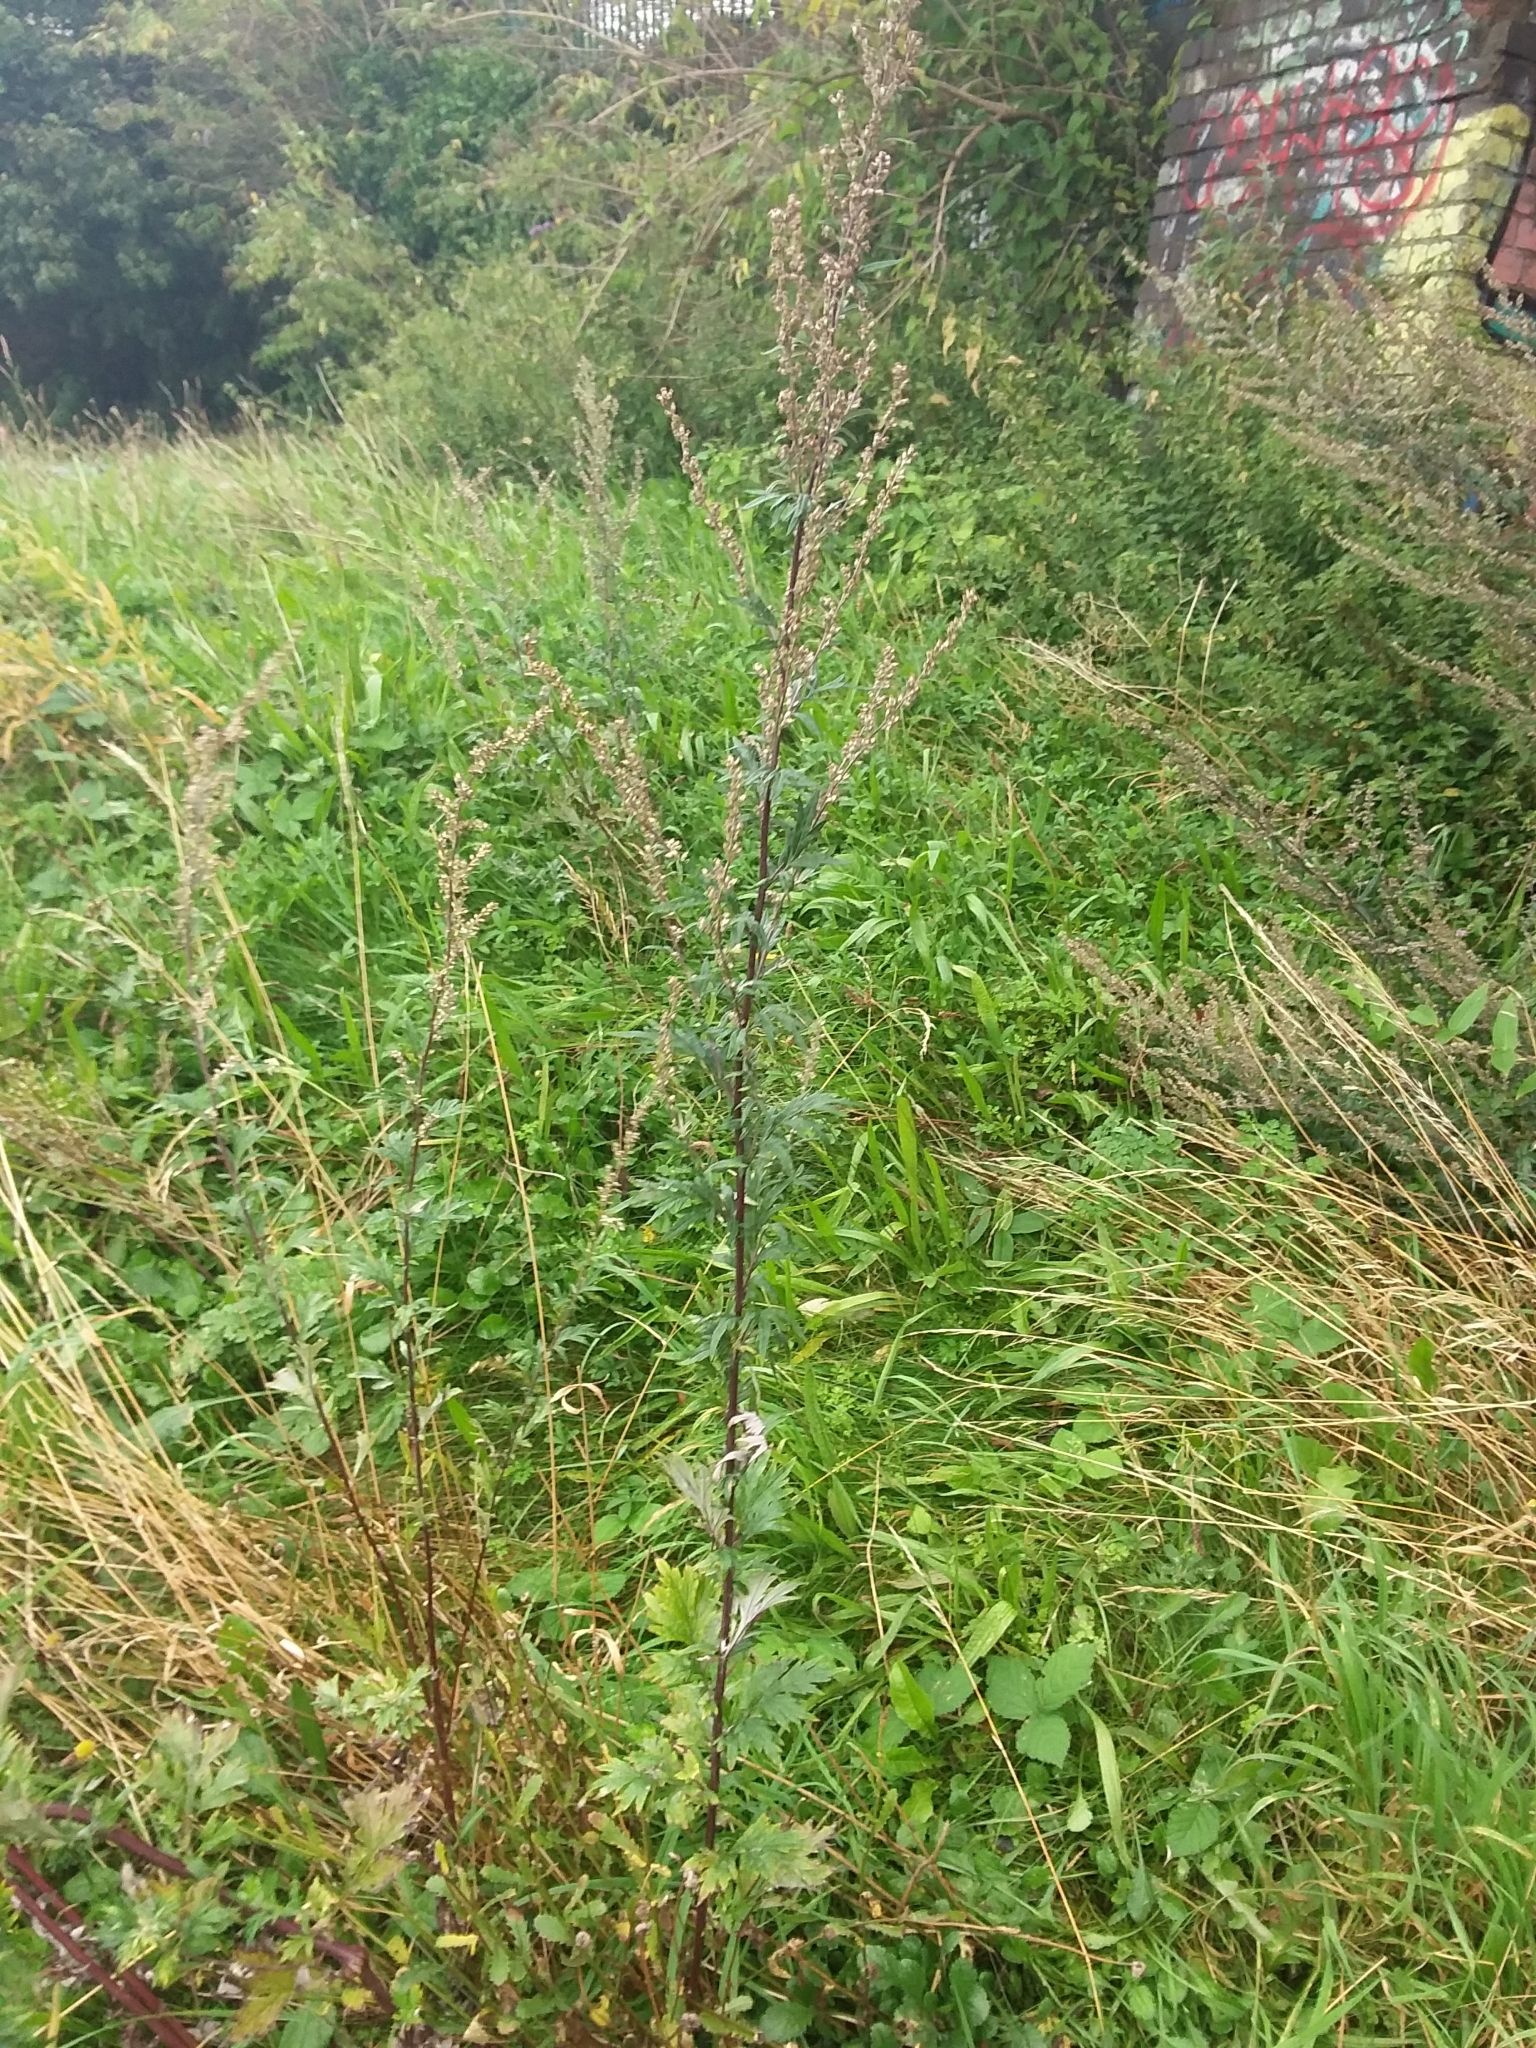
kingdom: Plantae
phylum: Tracheophyta
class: Magnoliopsida
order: Asterales
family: Asteraceae
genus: Artemisia
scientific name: Artemisia vulgaris
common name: Mugwort
